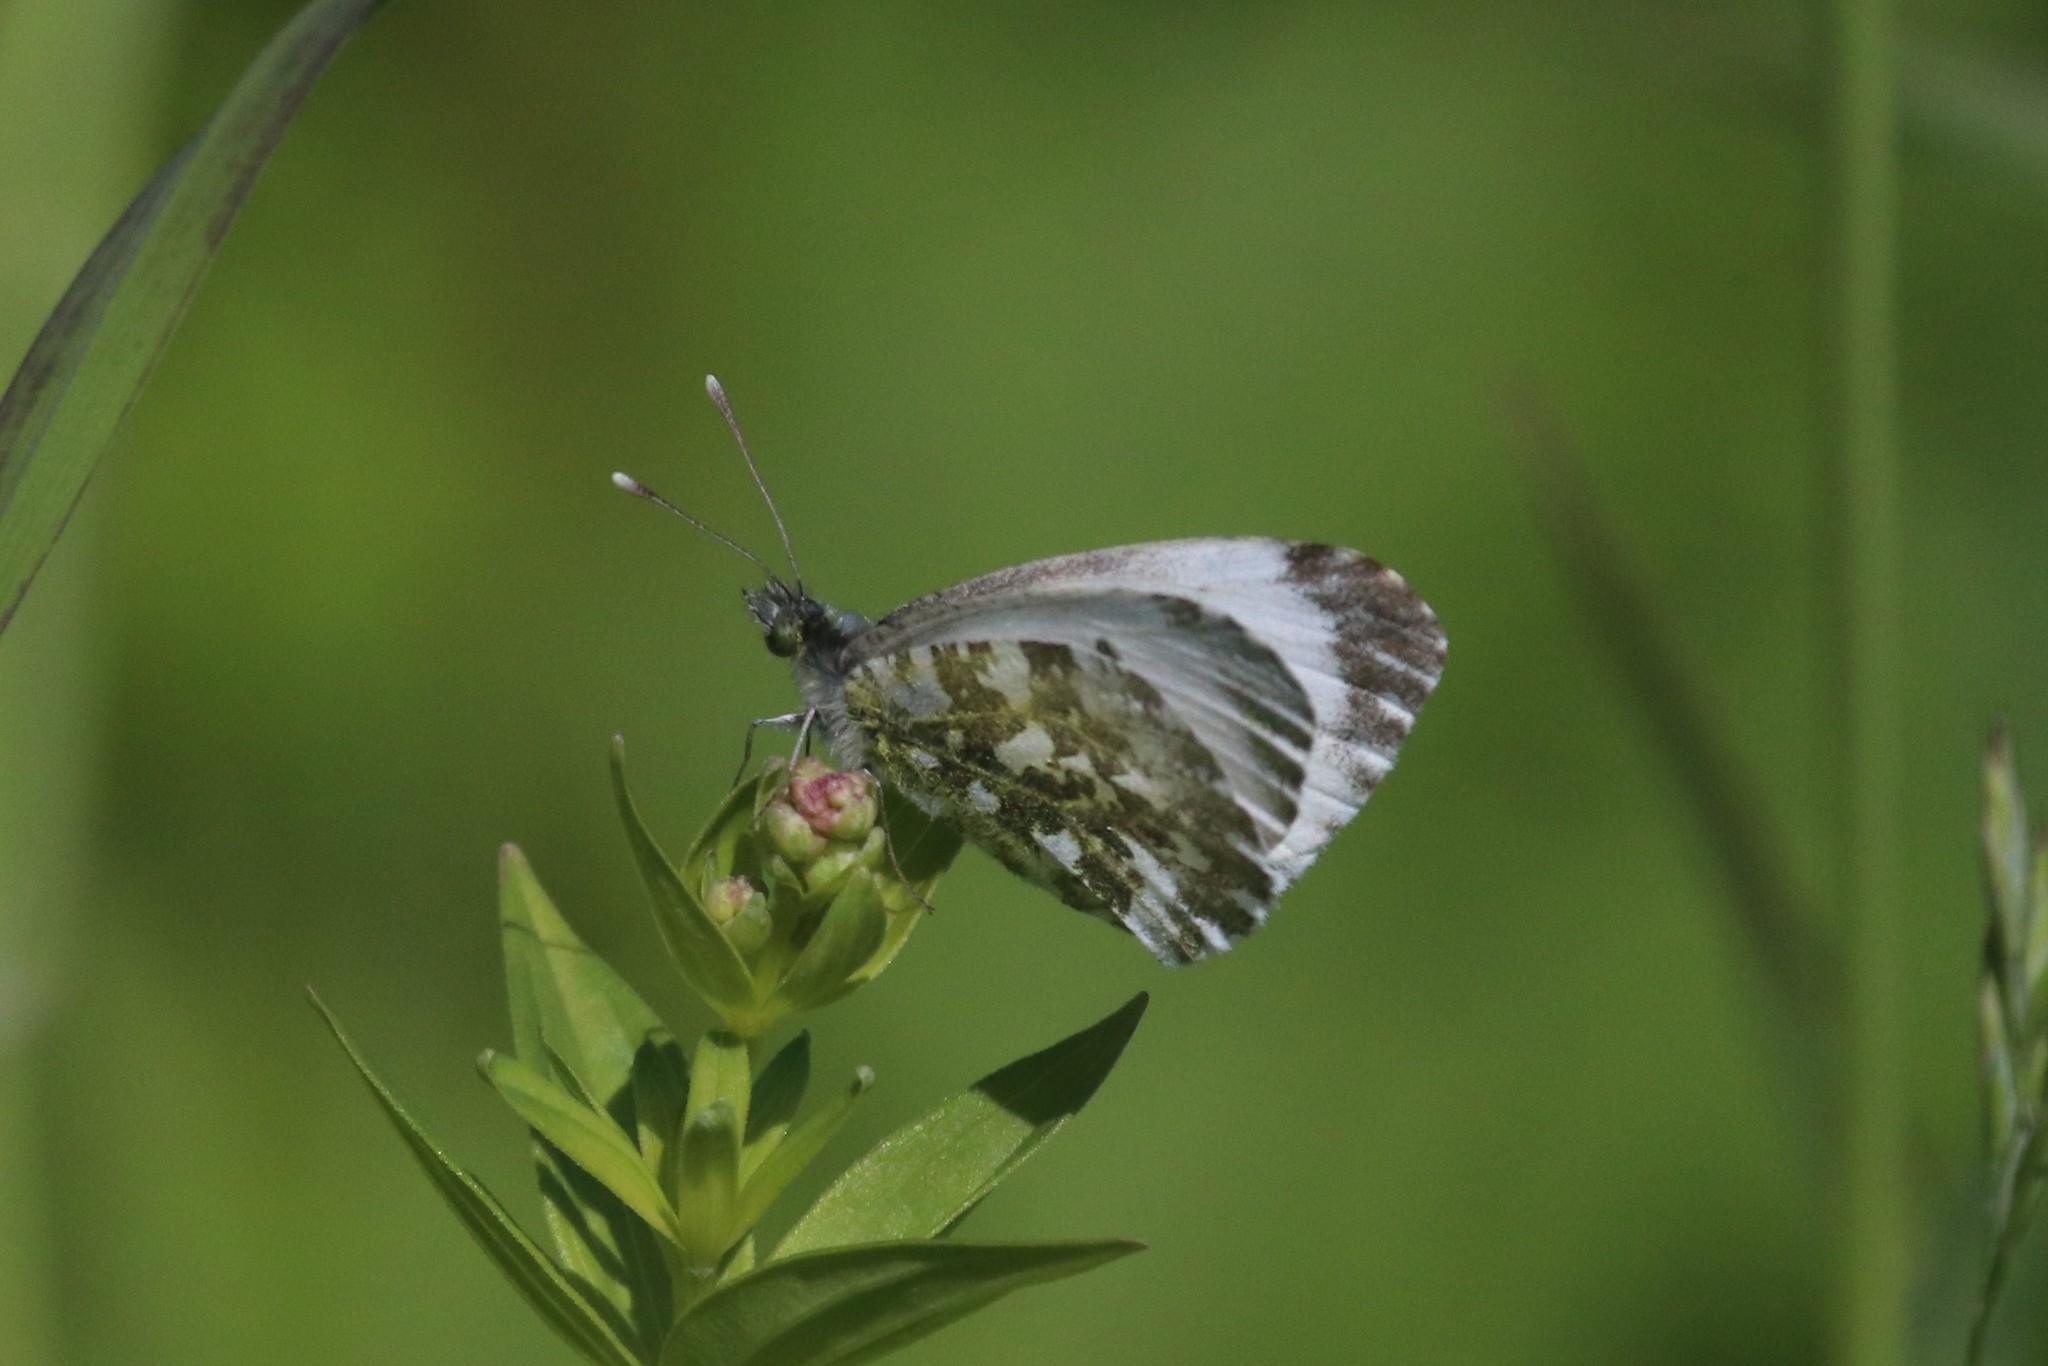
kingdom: Animalia
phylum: Arthropoda
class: Insecta
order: Lepidoptera
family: Pieridae
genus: Anthocharis
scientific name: Anthocharis cardamines
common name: Orange-tip
